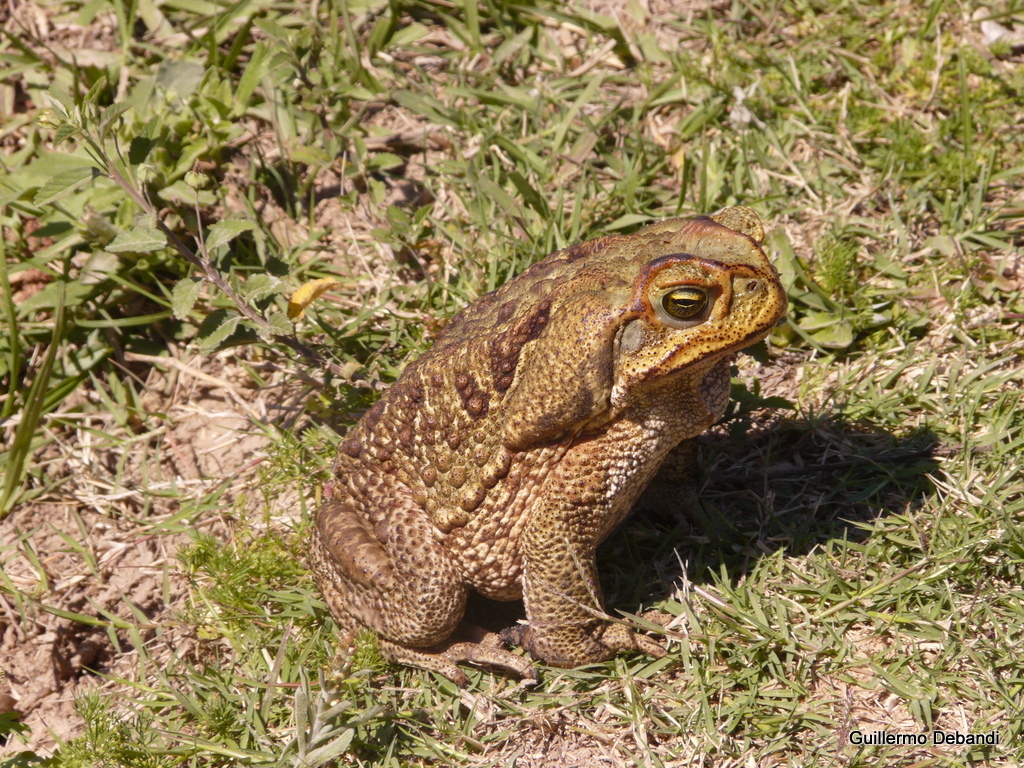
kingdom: Animalia
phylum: Chordata
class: Amphibia
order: Anura
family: Bufonidae
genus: Rhinella
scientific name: Rhinella diptycha
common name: Cope's toad
